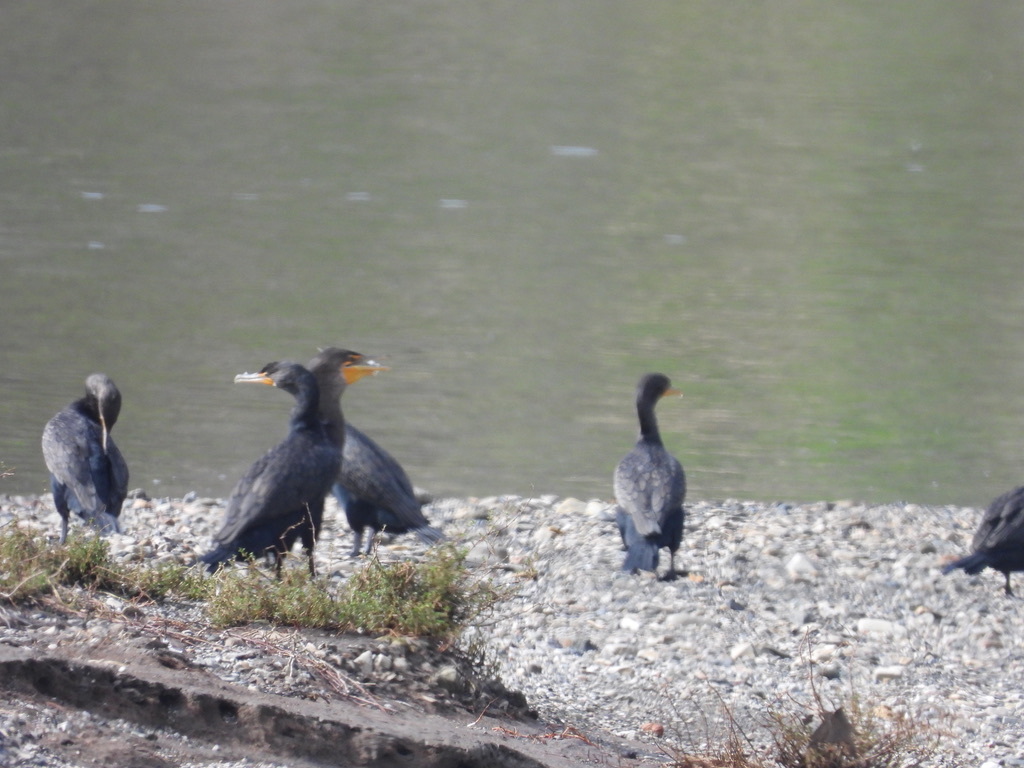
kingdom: Animalia
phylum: Chordata
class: Aves
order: Suliformes
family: Phalacrocoracidae
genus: Phalacrocorax
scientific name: Phalacrocorax auritus
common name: Double-crested cormorant
